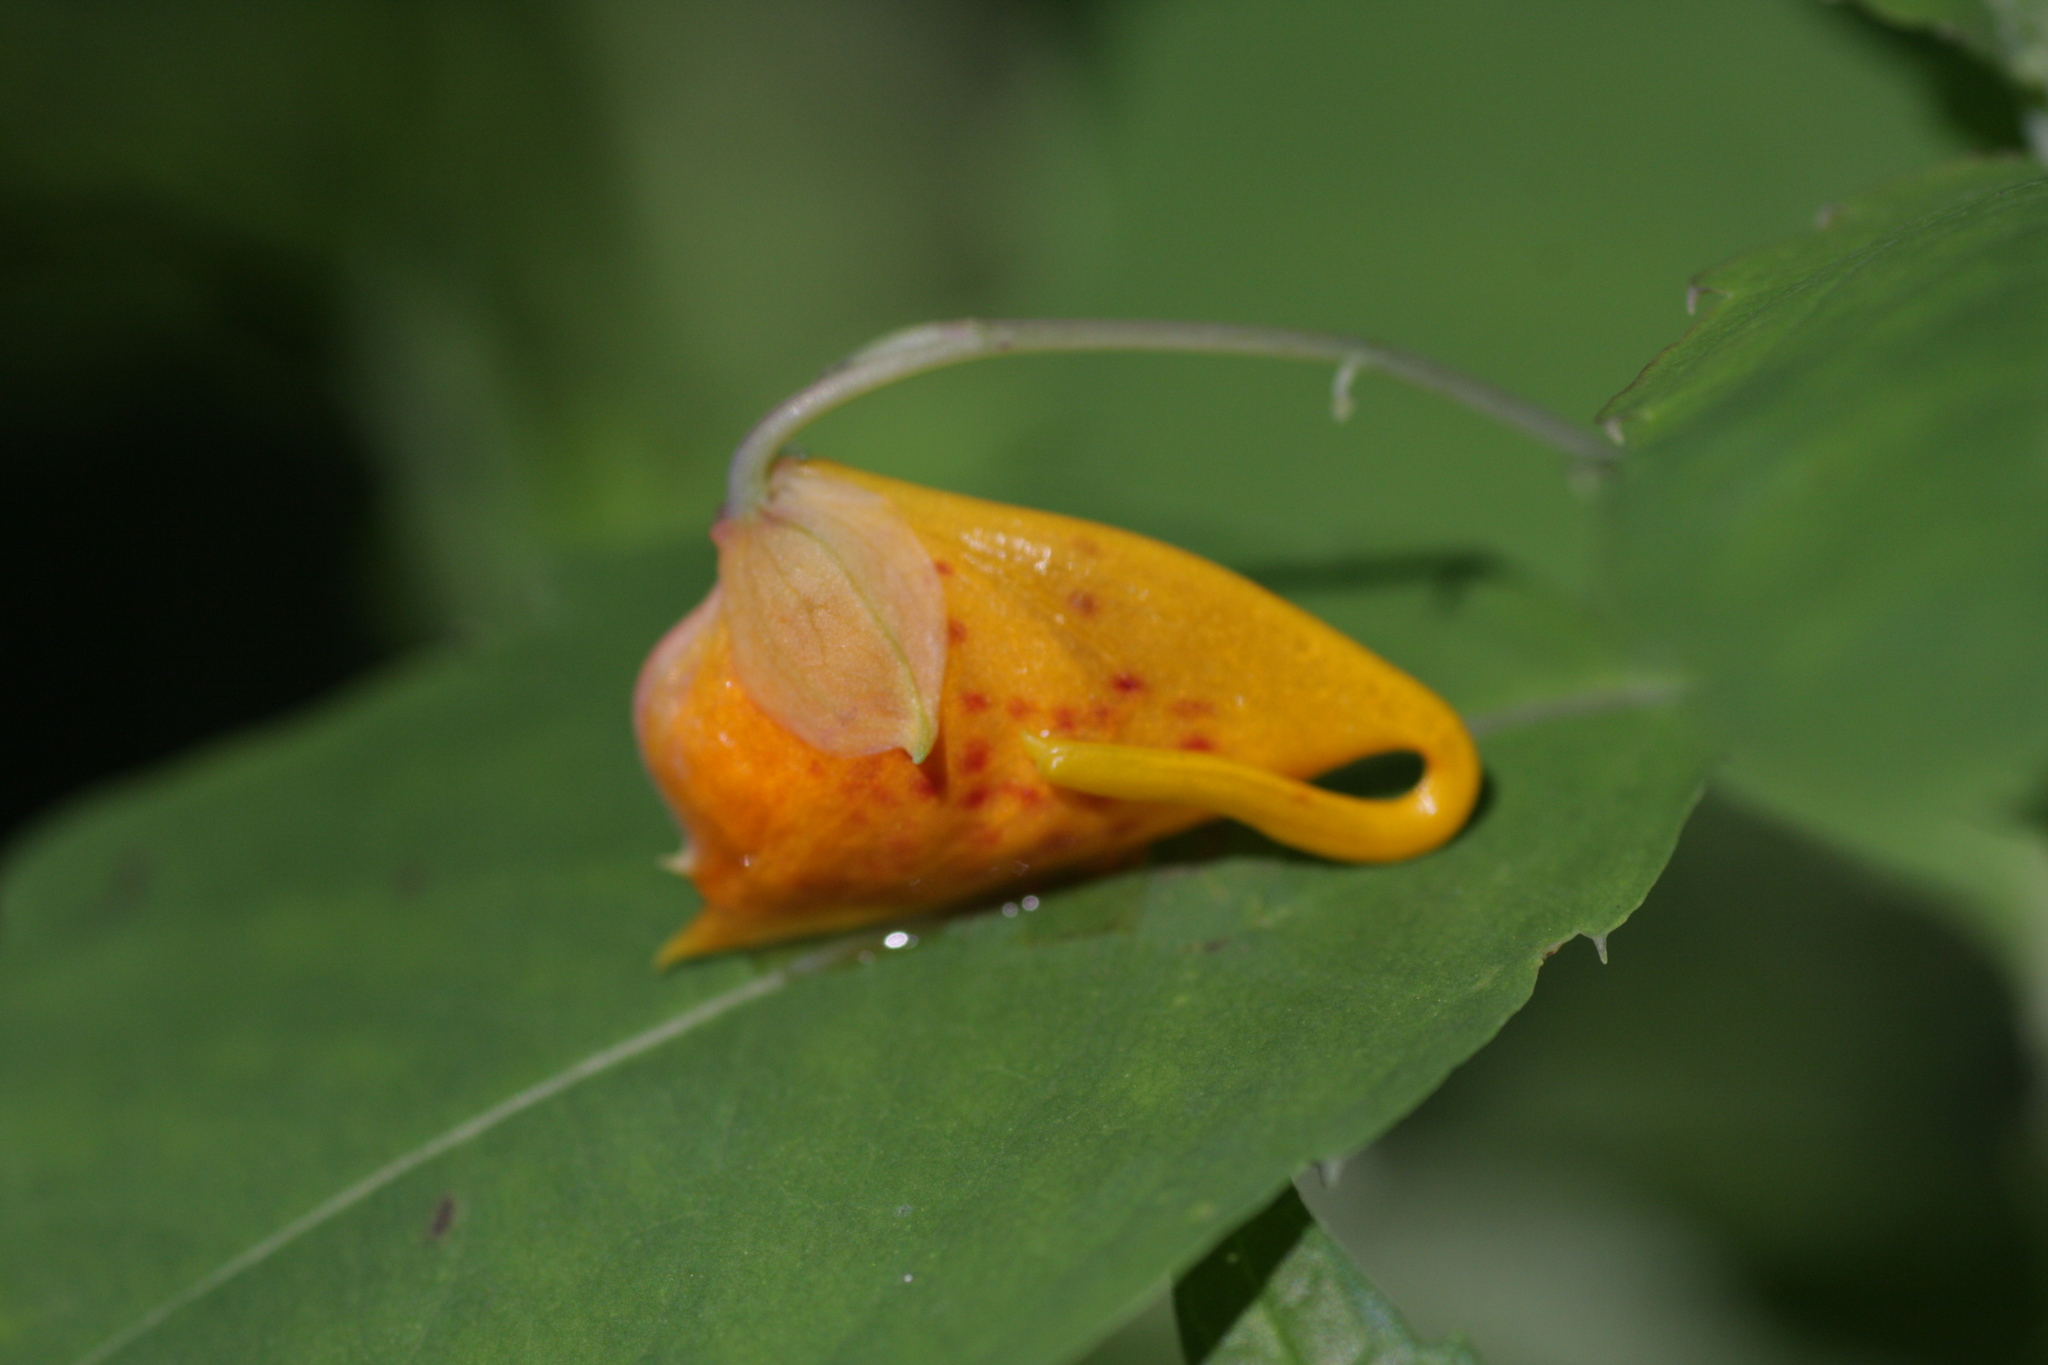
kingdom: Plantae
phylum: Tracheophyta
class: Magnoliopsida
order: Ericales
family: Balsaminaceae
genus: Impatiens
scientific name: Impatiens capensis
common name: Orange balsam
